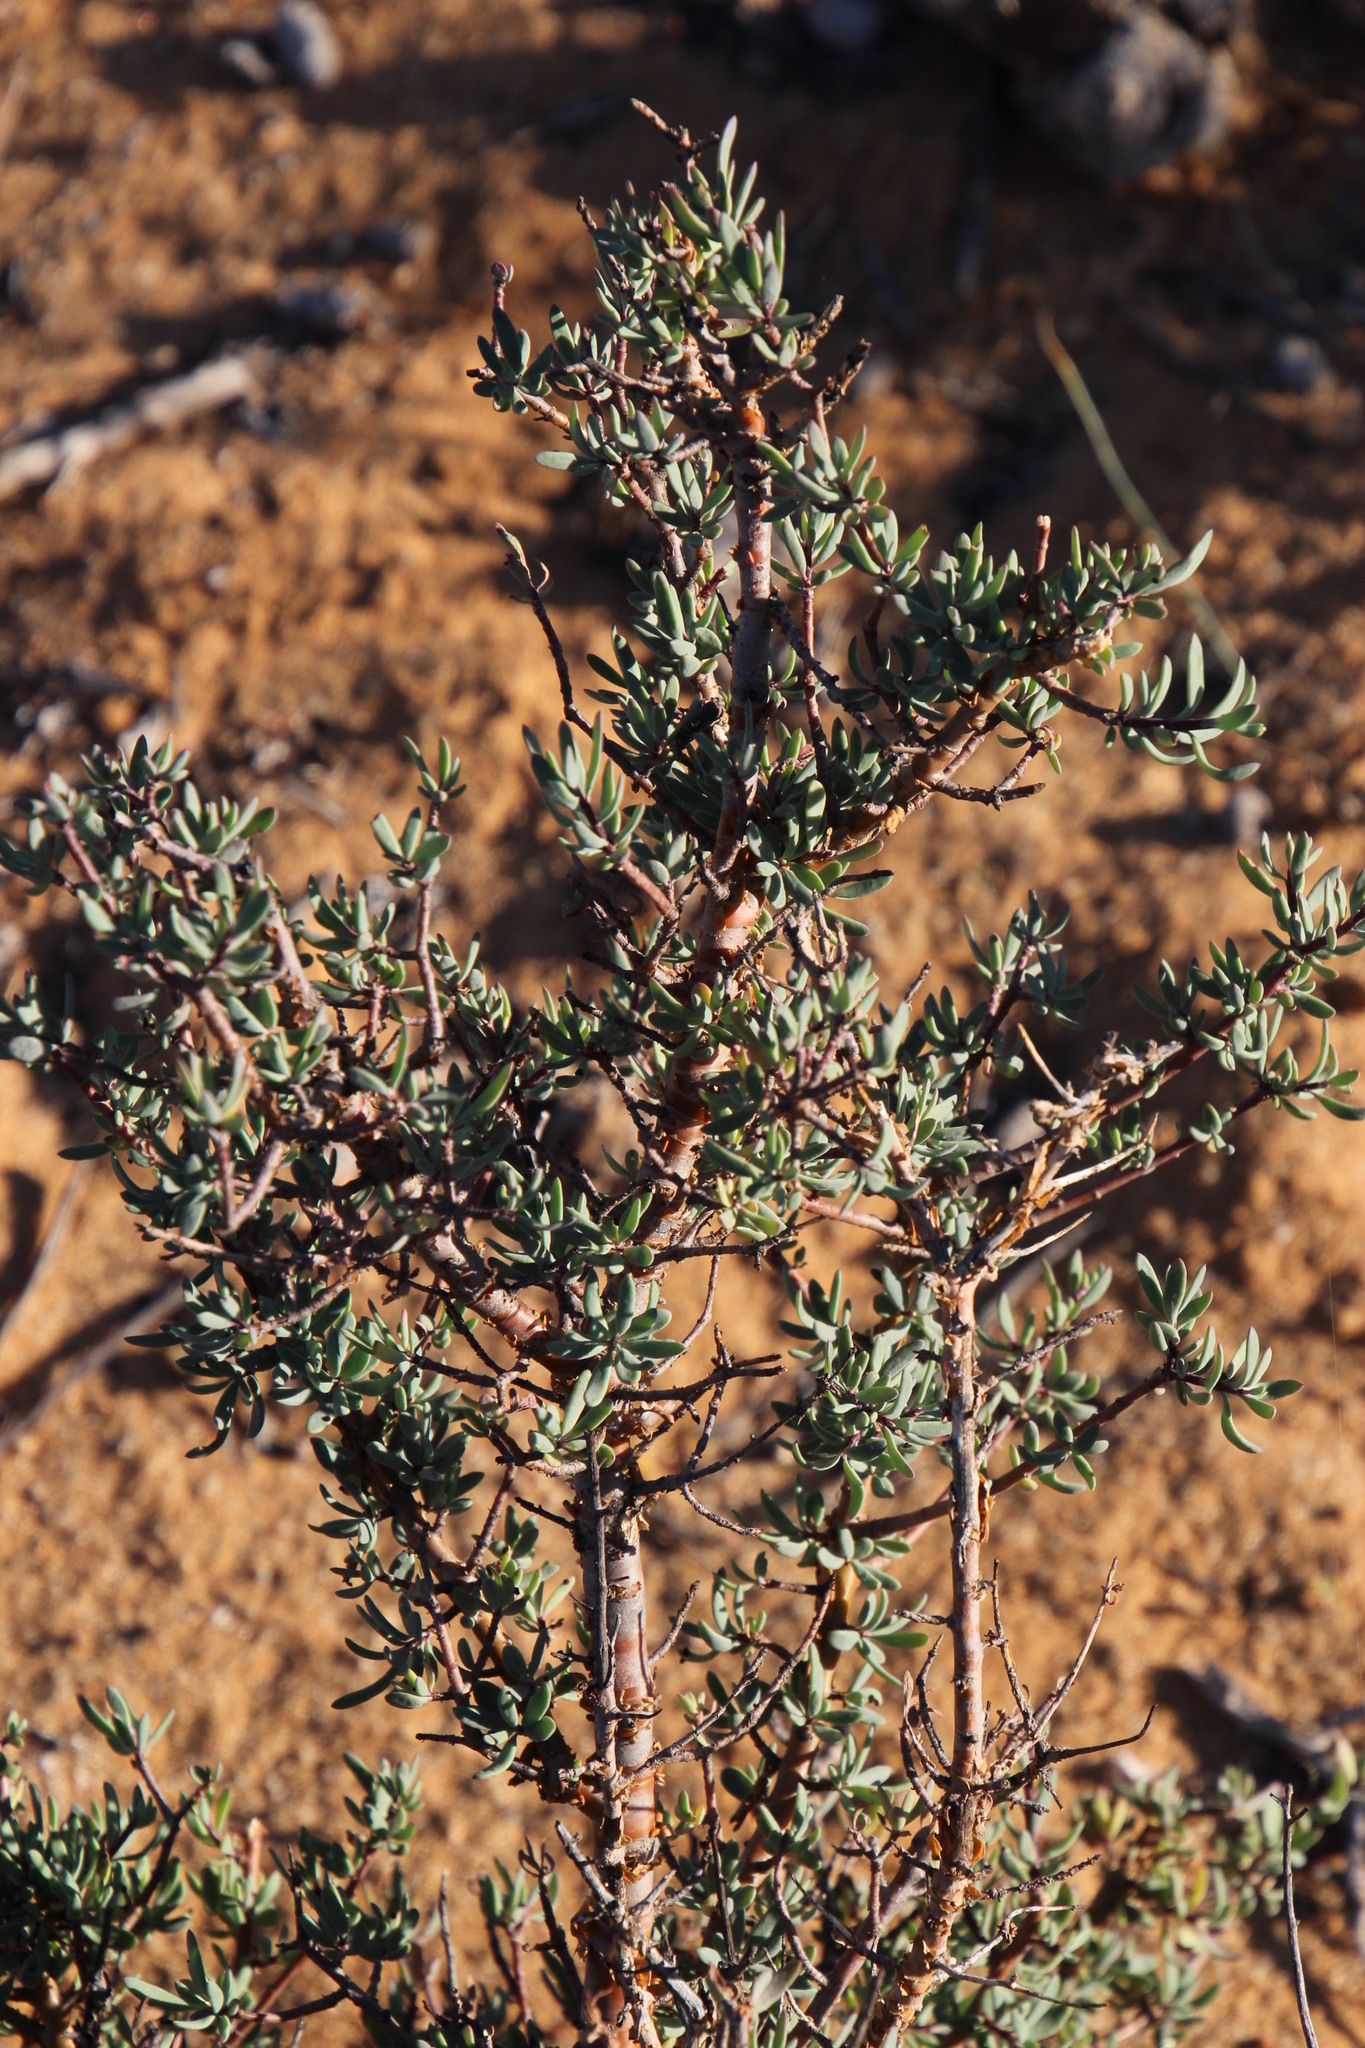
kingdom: Plantae
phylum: Tracheophyta
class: Magnoliopsida
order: Asterales
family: Asteraceae
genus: Othonna
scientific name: Othonna ramulosa
